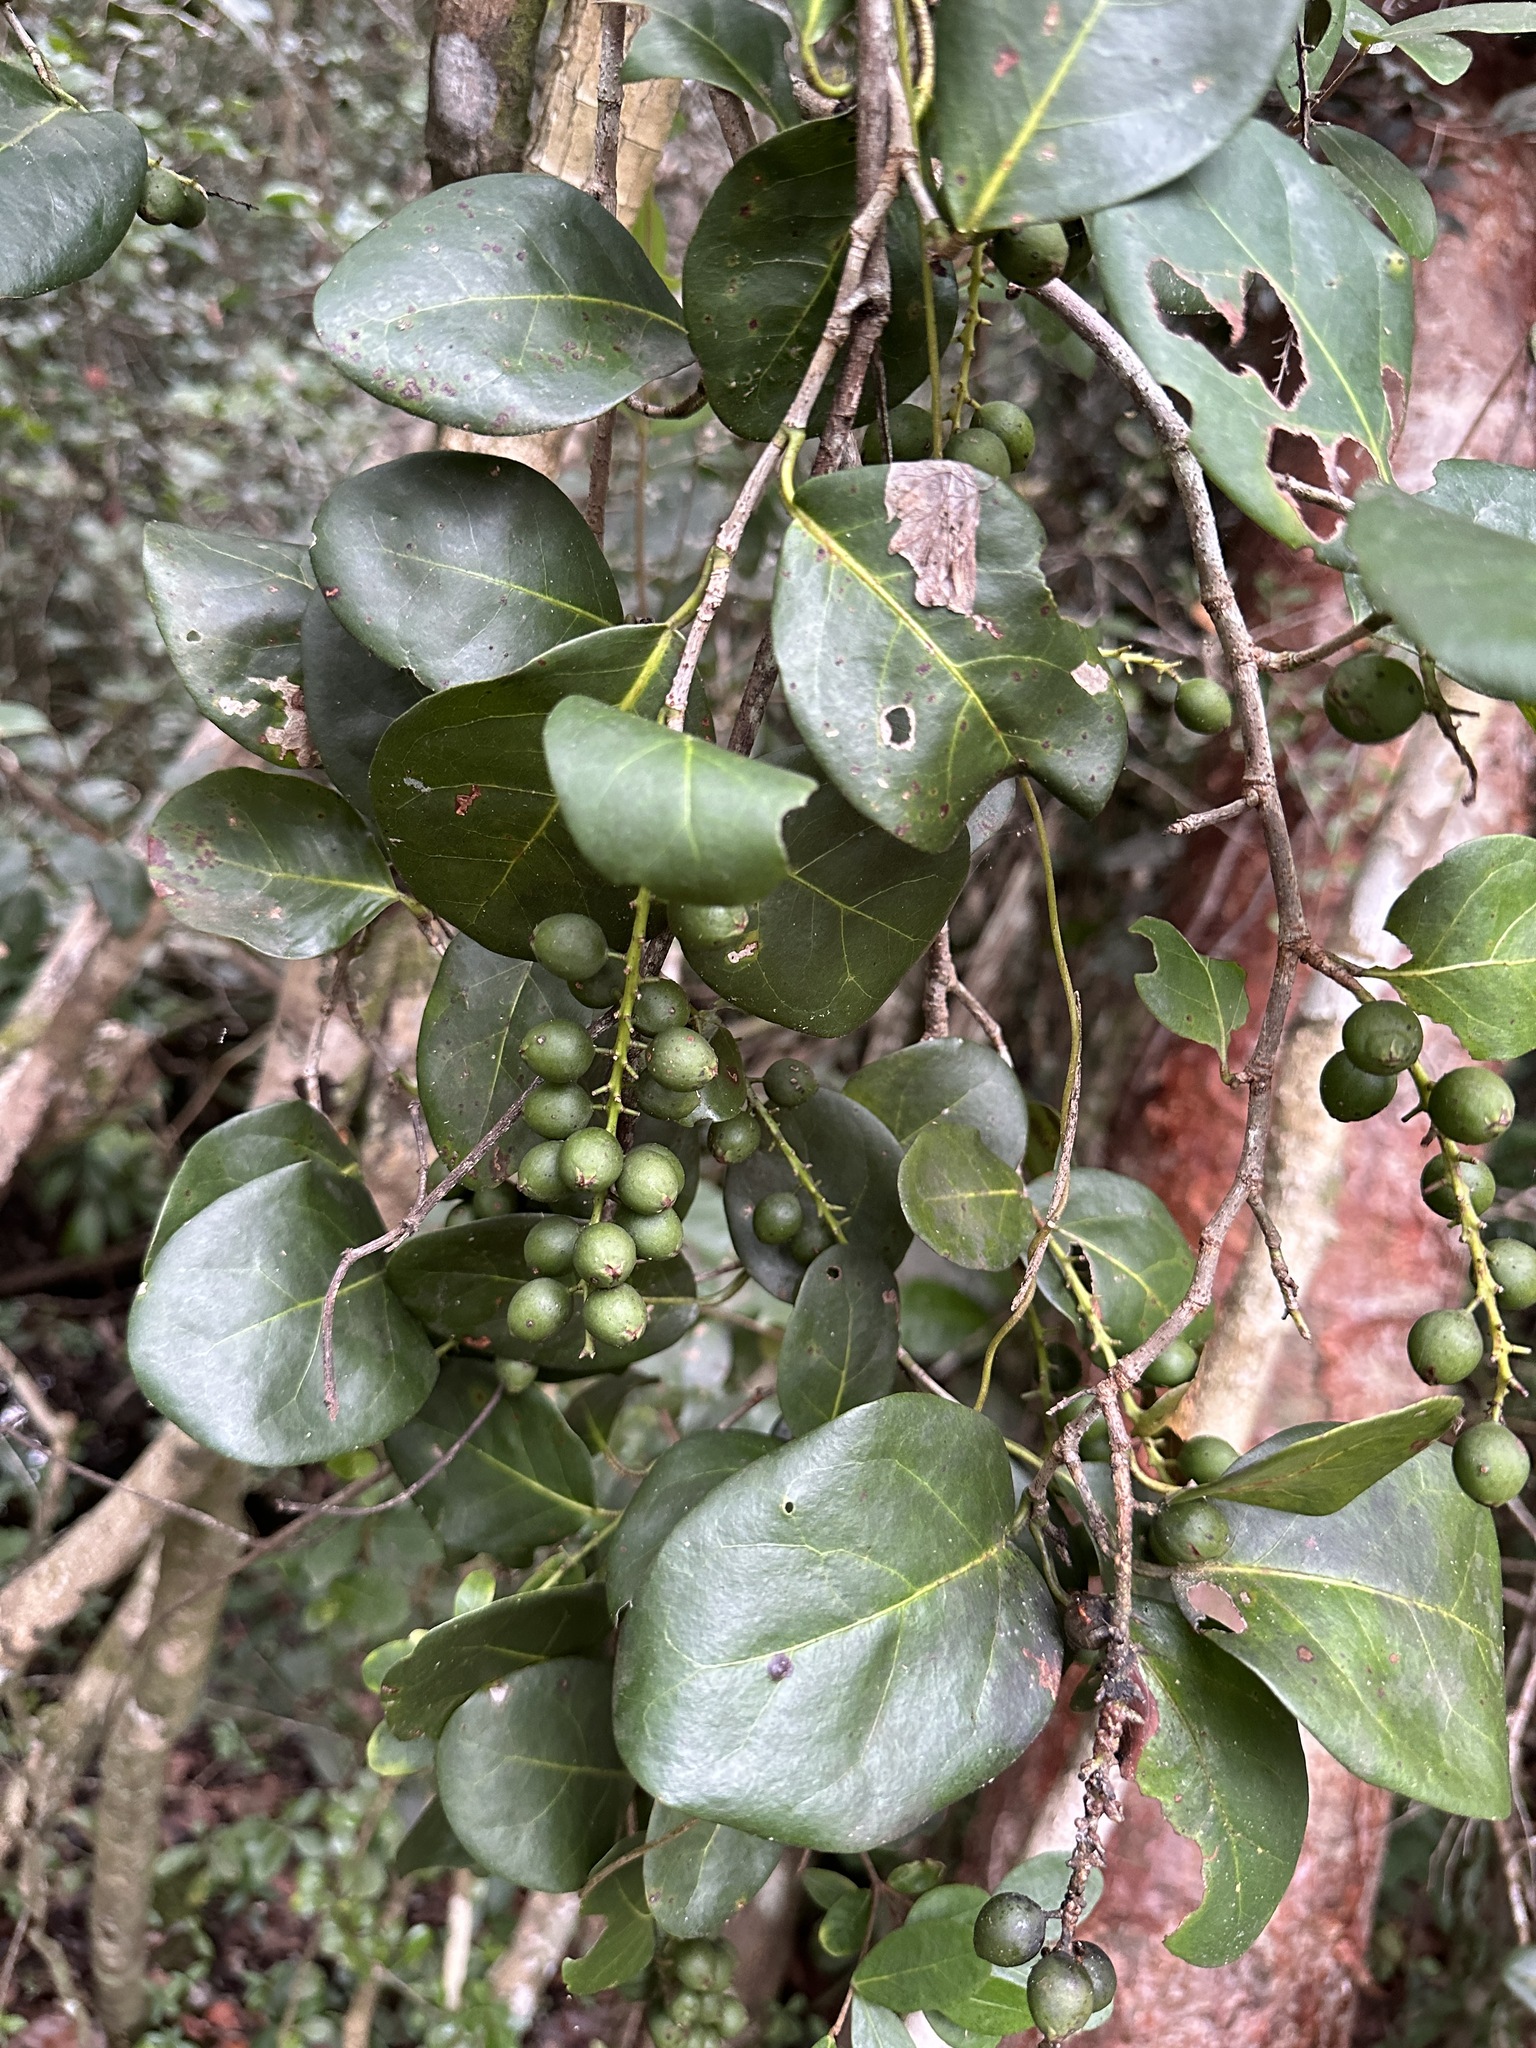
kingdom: Plantae
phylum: Tracheophyta
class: Magnoliopsida
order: Caryophyllales
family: Polygonaceae
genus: Coccoloba
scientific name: Coccoloba diversifolia
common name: Pigeon-plum
